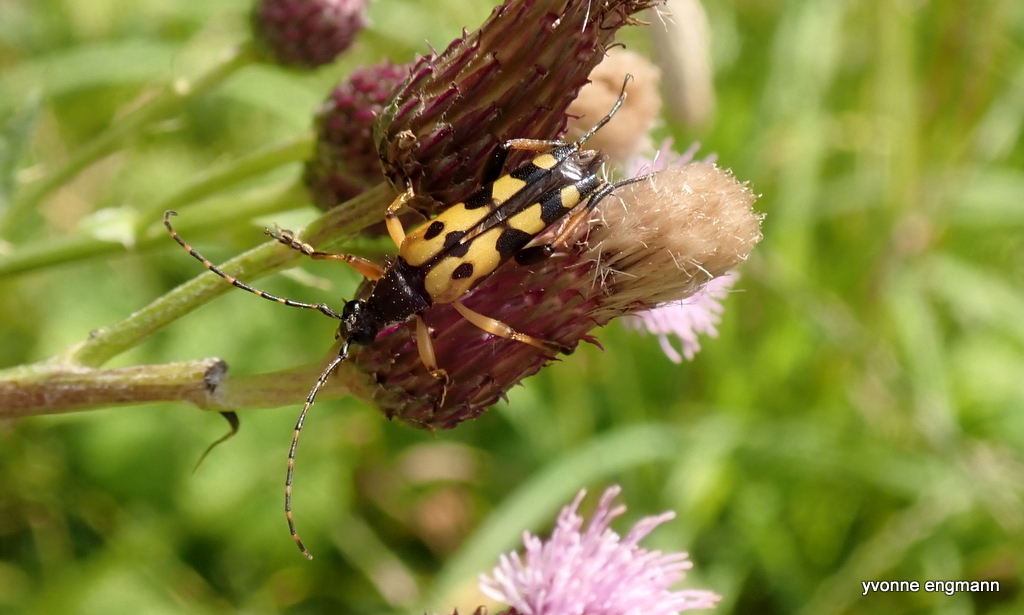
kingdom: Animalia
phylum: Arthropoda
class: Insecta
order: Coleoptera
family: Cerambycidae
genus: Rutpela
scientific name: Rutpela maculata
